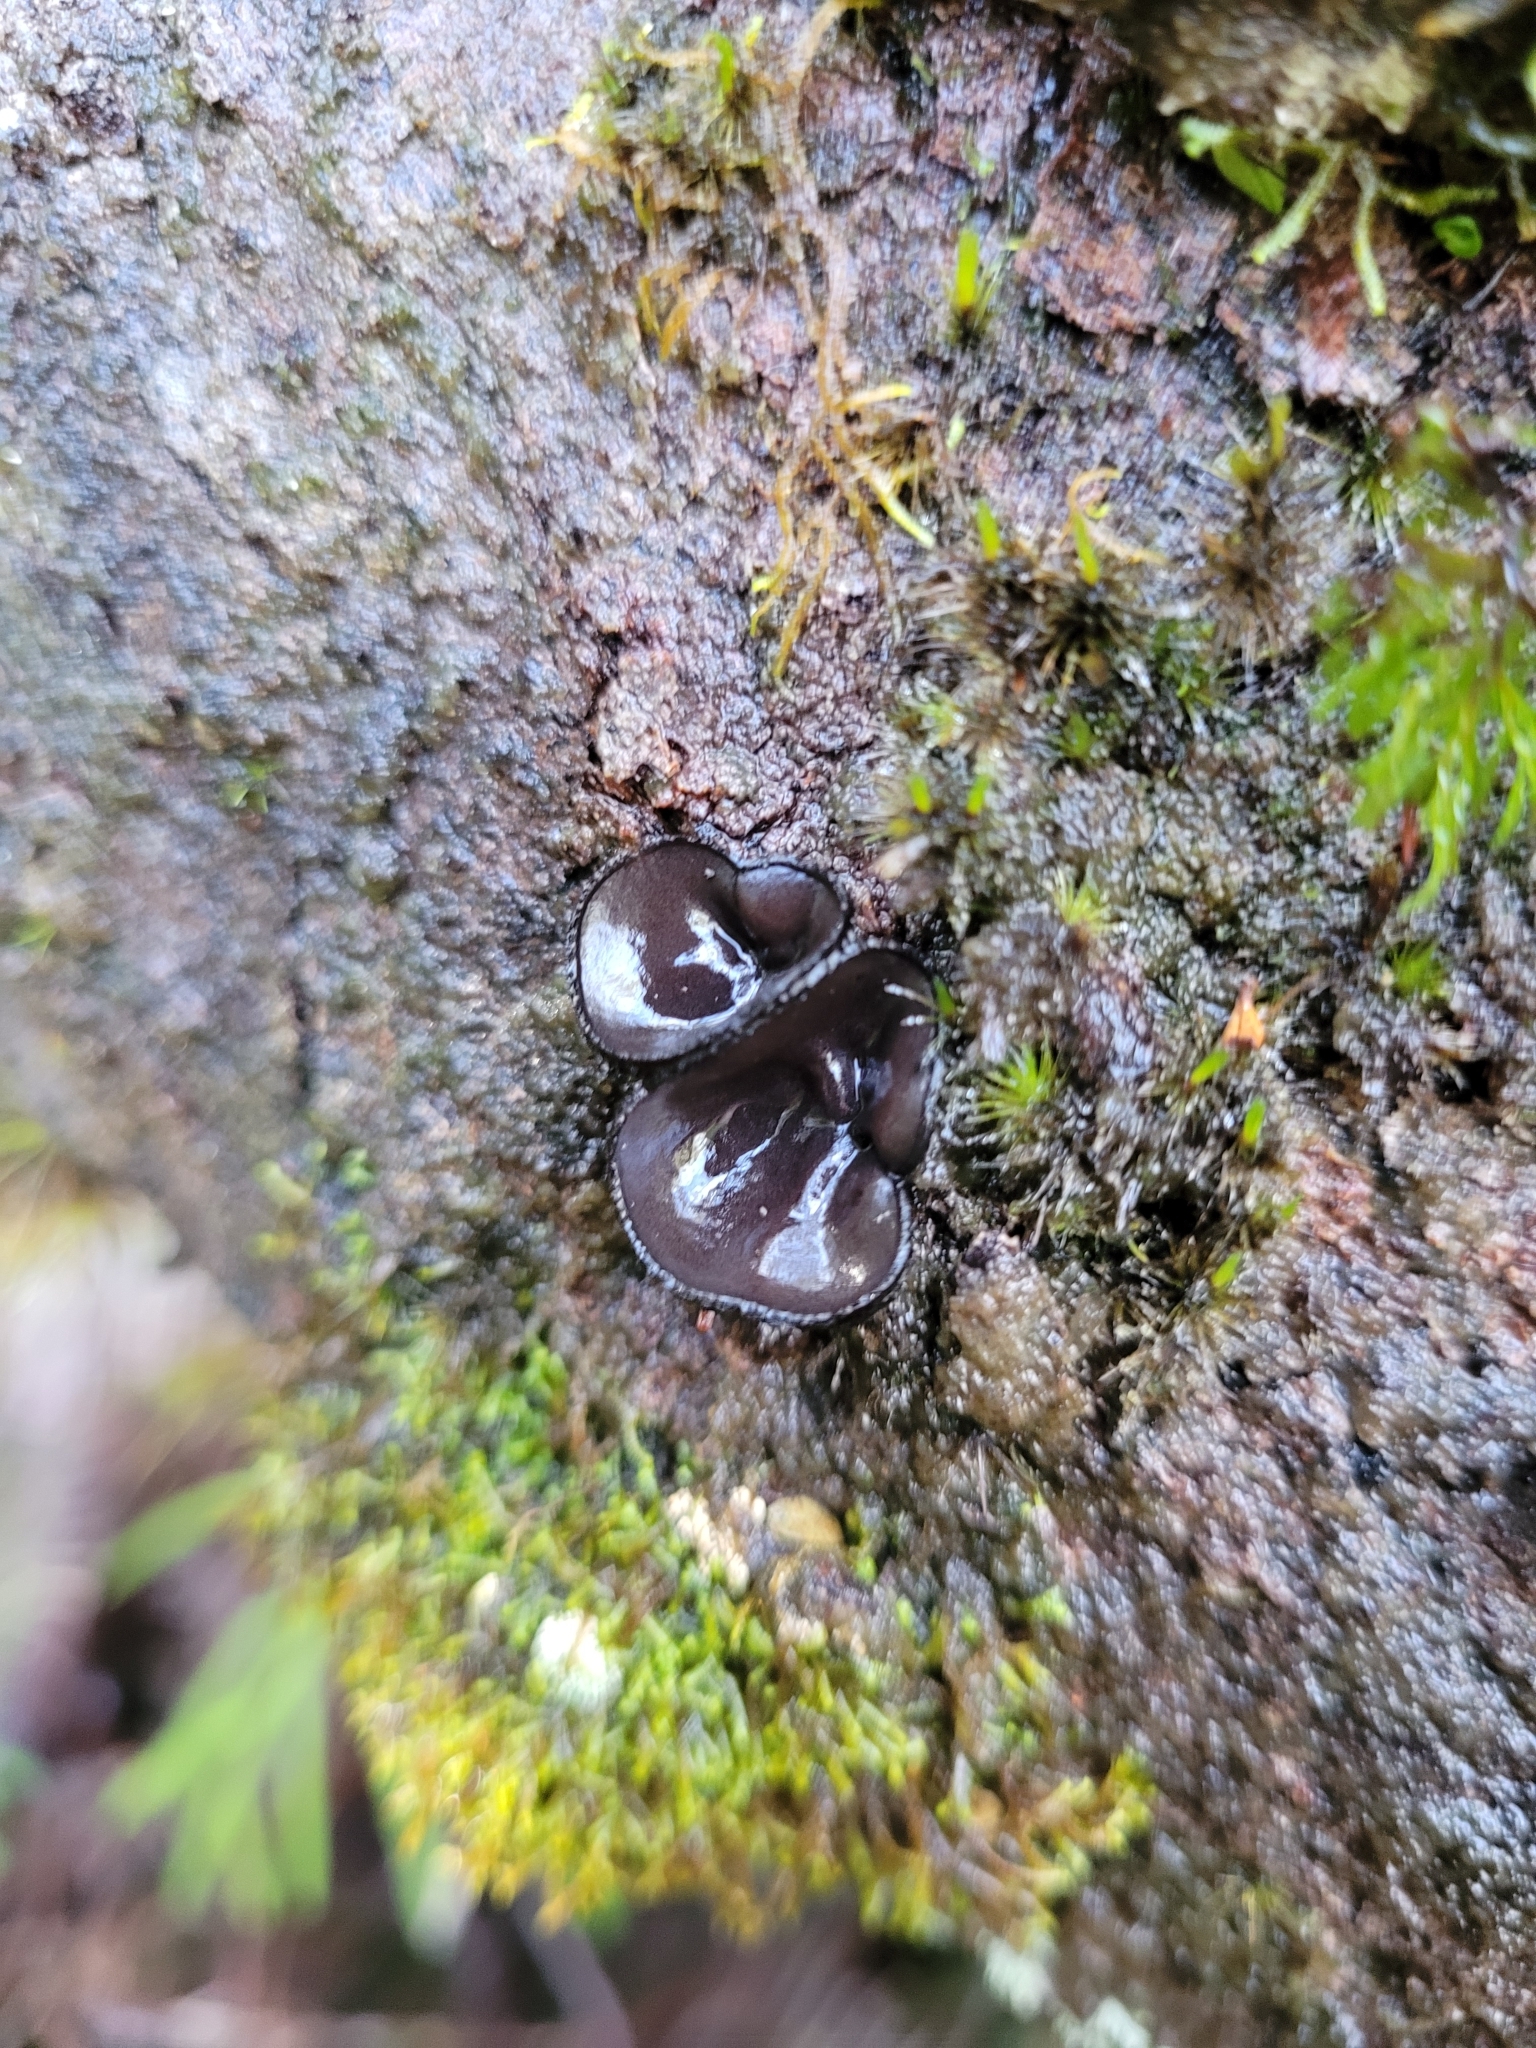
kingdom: Fungi
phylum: Ascomycota
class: Pezizomycetes
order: Pezizales
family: Sarcosomataceae
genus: Plectania
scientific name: Plectania campylospora
